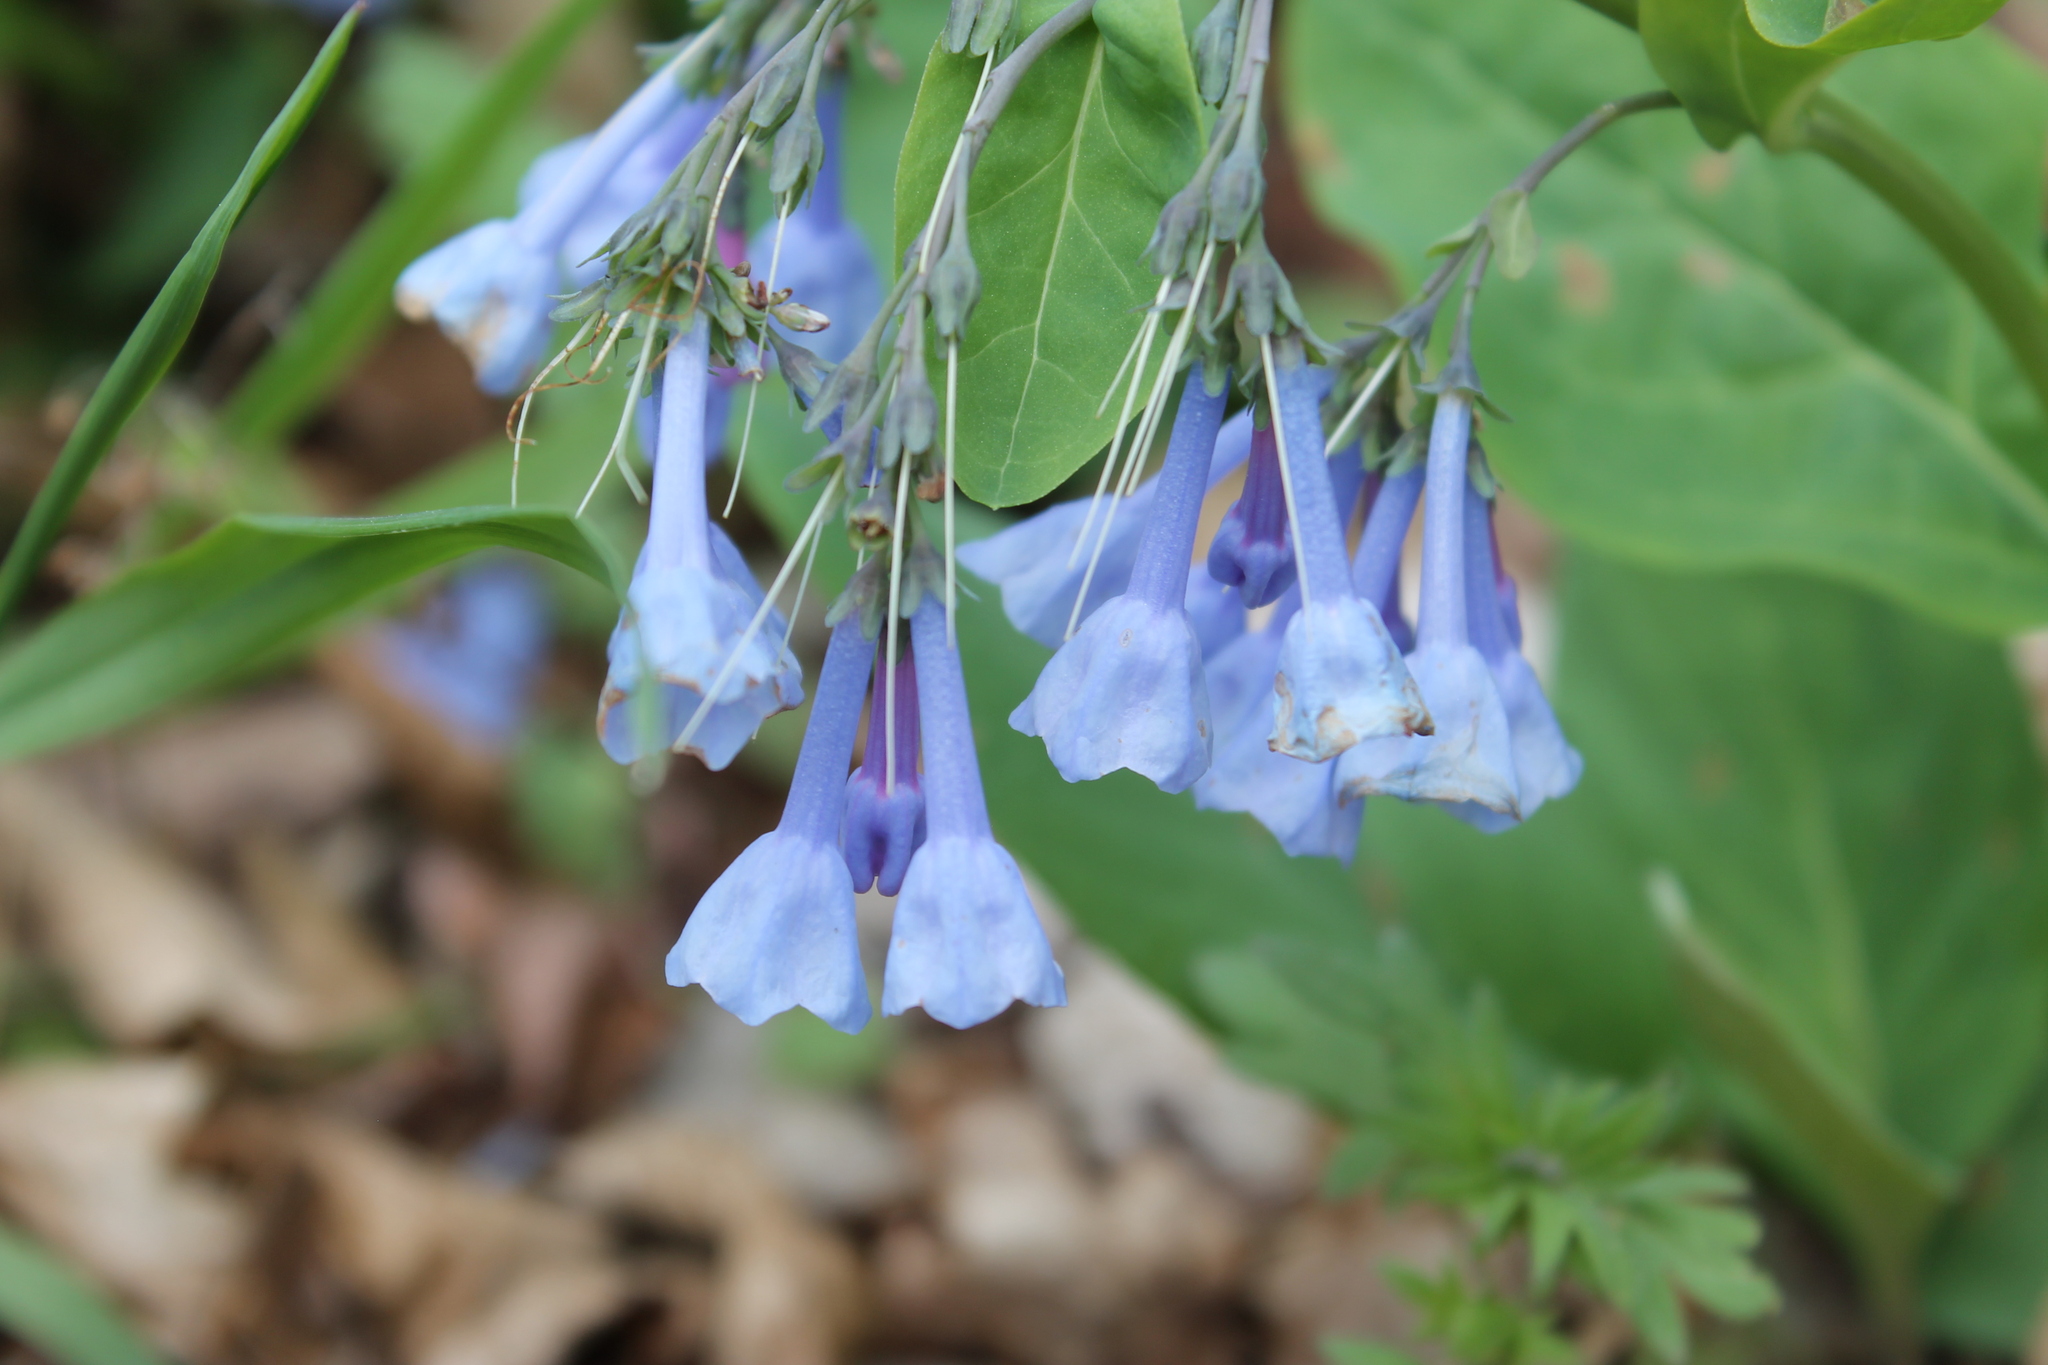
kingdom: Plantae
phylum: Tracheophyta
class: Magnoliopsida
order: Boraginales
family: Boraginaceae
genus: Mertensia
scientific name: Mertensia virginica
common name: Virginia bluebells
